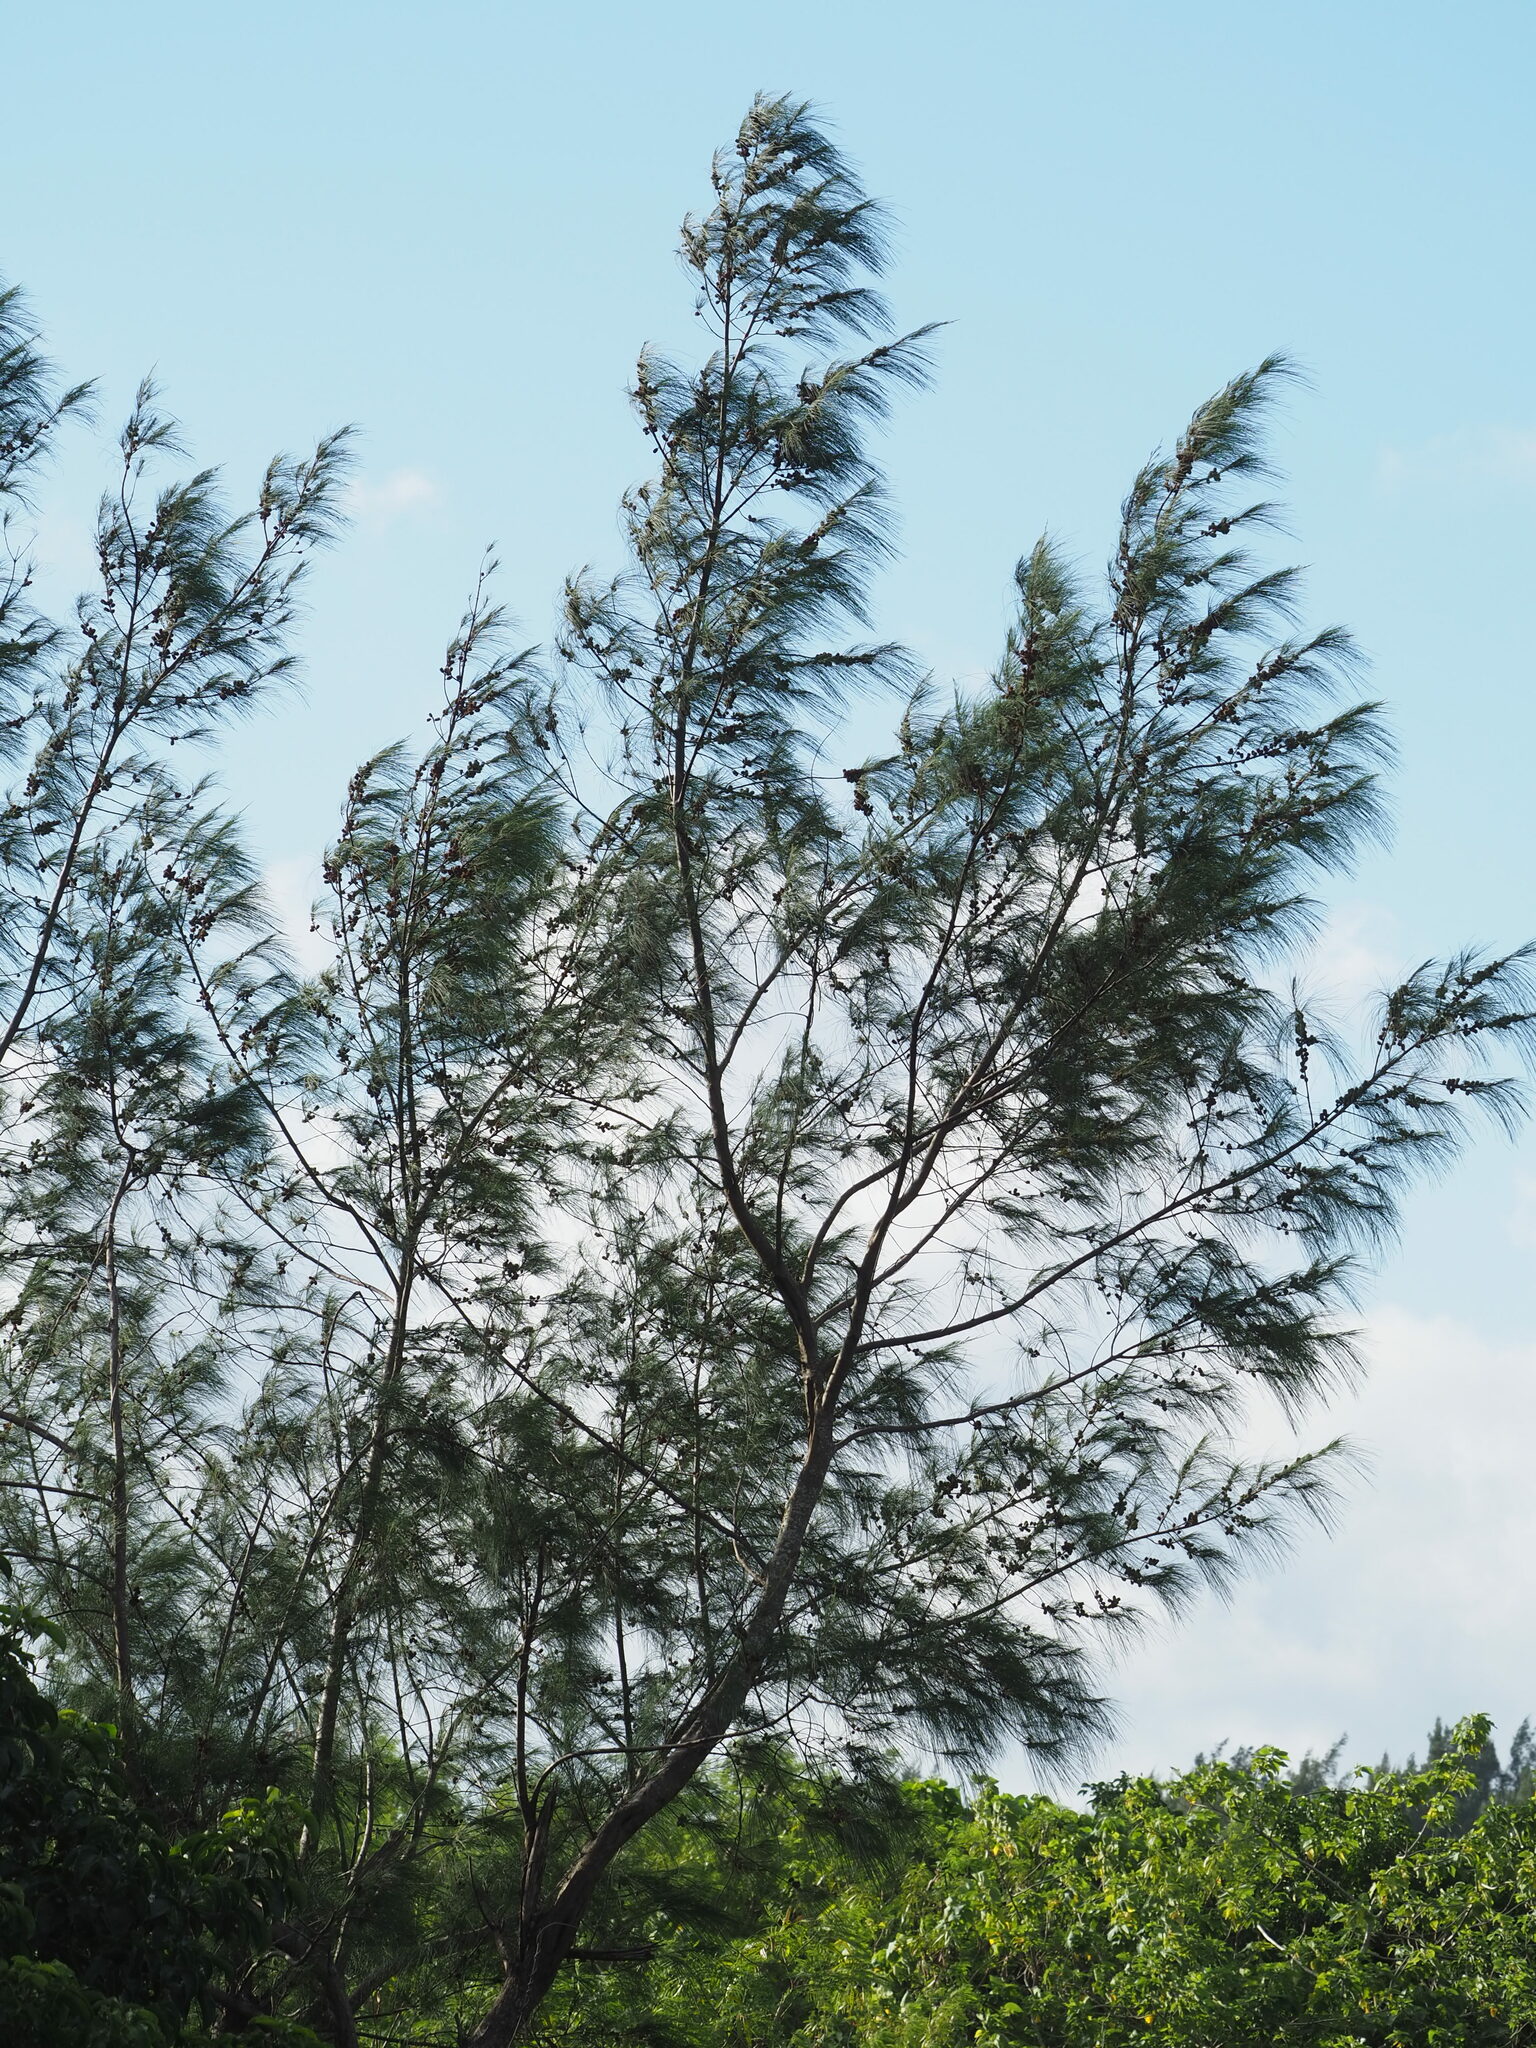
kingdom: Plantae
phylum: Tracheophyta
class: Magnoliopsida
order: Fagales
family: Casuarinaceae
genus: Casuarina
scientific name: Casuarina equisetifolia
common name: Beach sheoak
